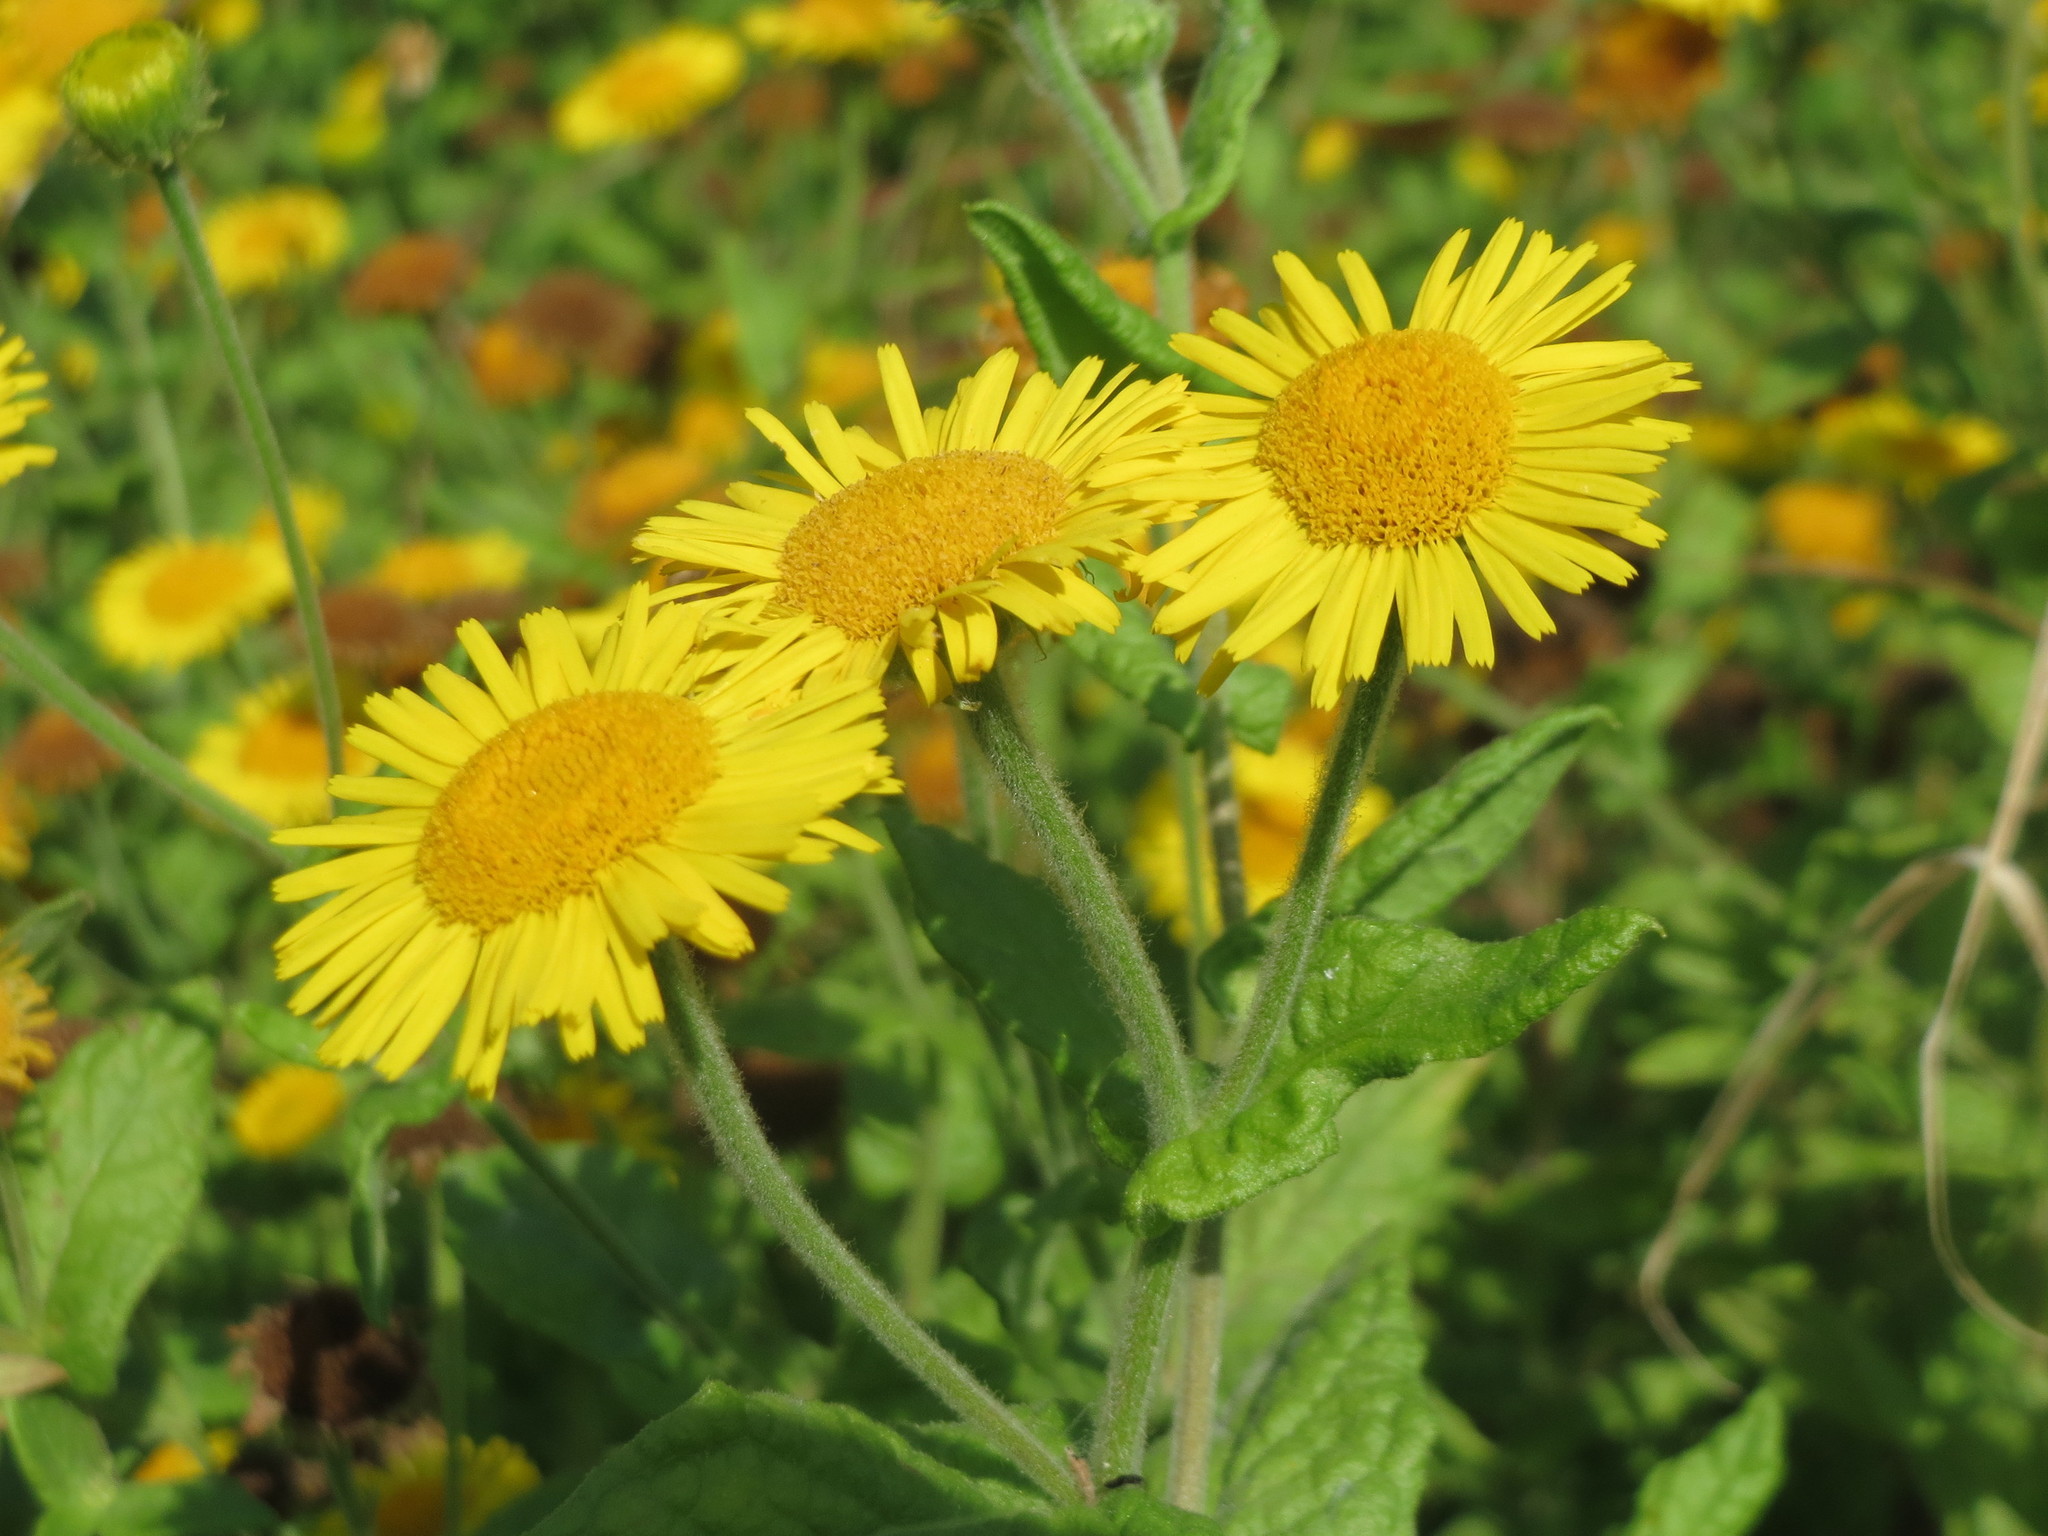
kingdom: Plantae
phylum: Tracheophyta
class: Magnoliopsida
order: Asterales
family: Asteraceae
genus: Pulicaria
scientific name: Pulicaria dysenterica
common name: Common fleabane
